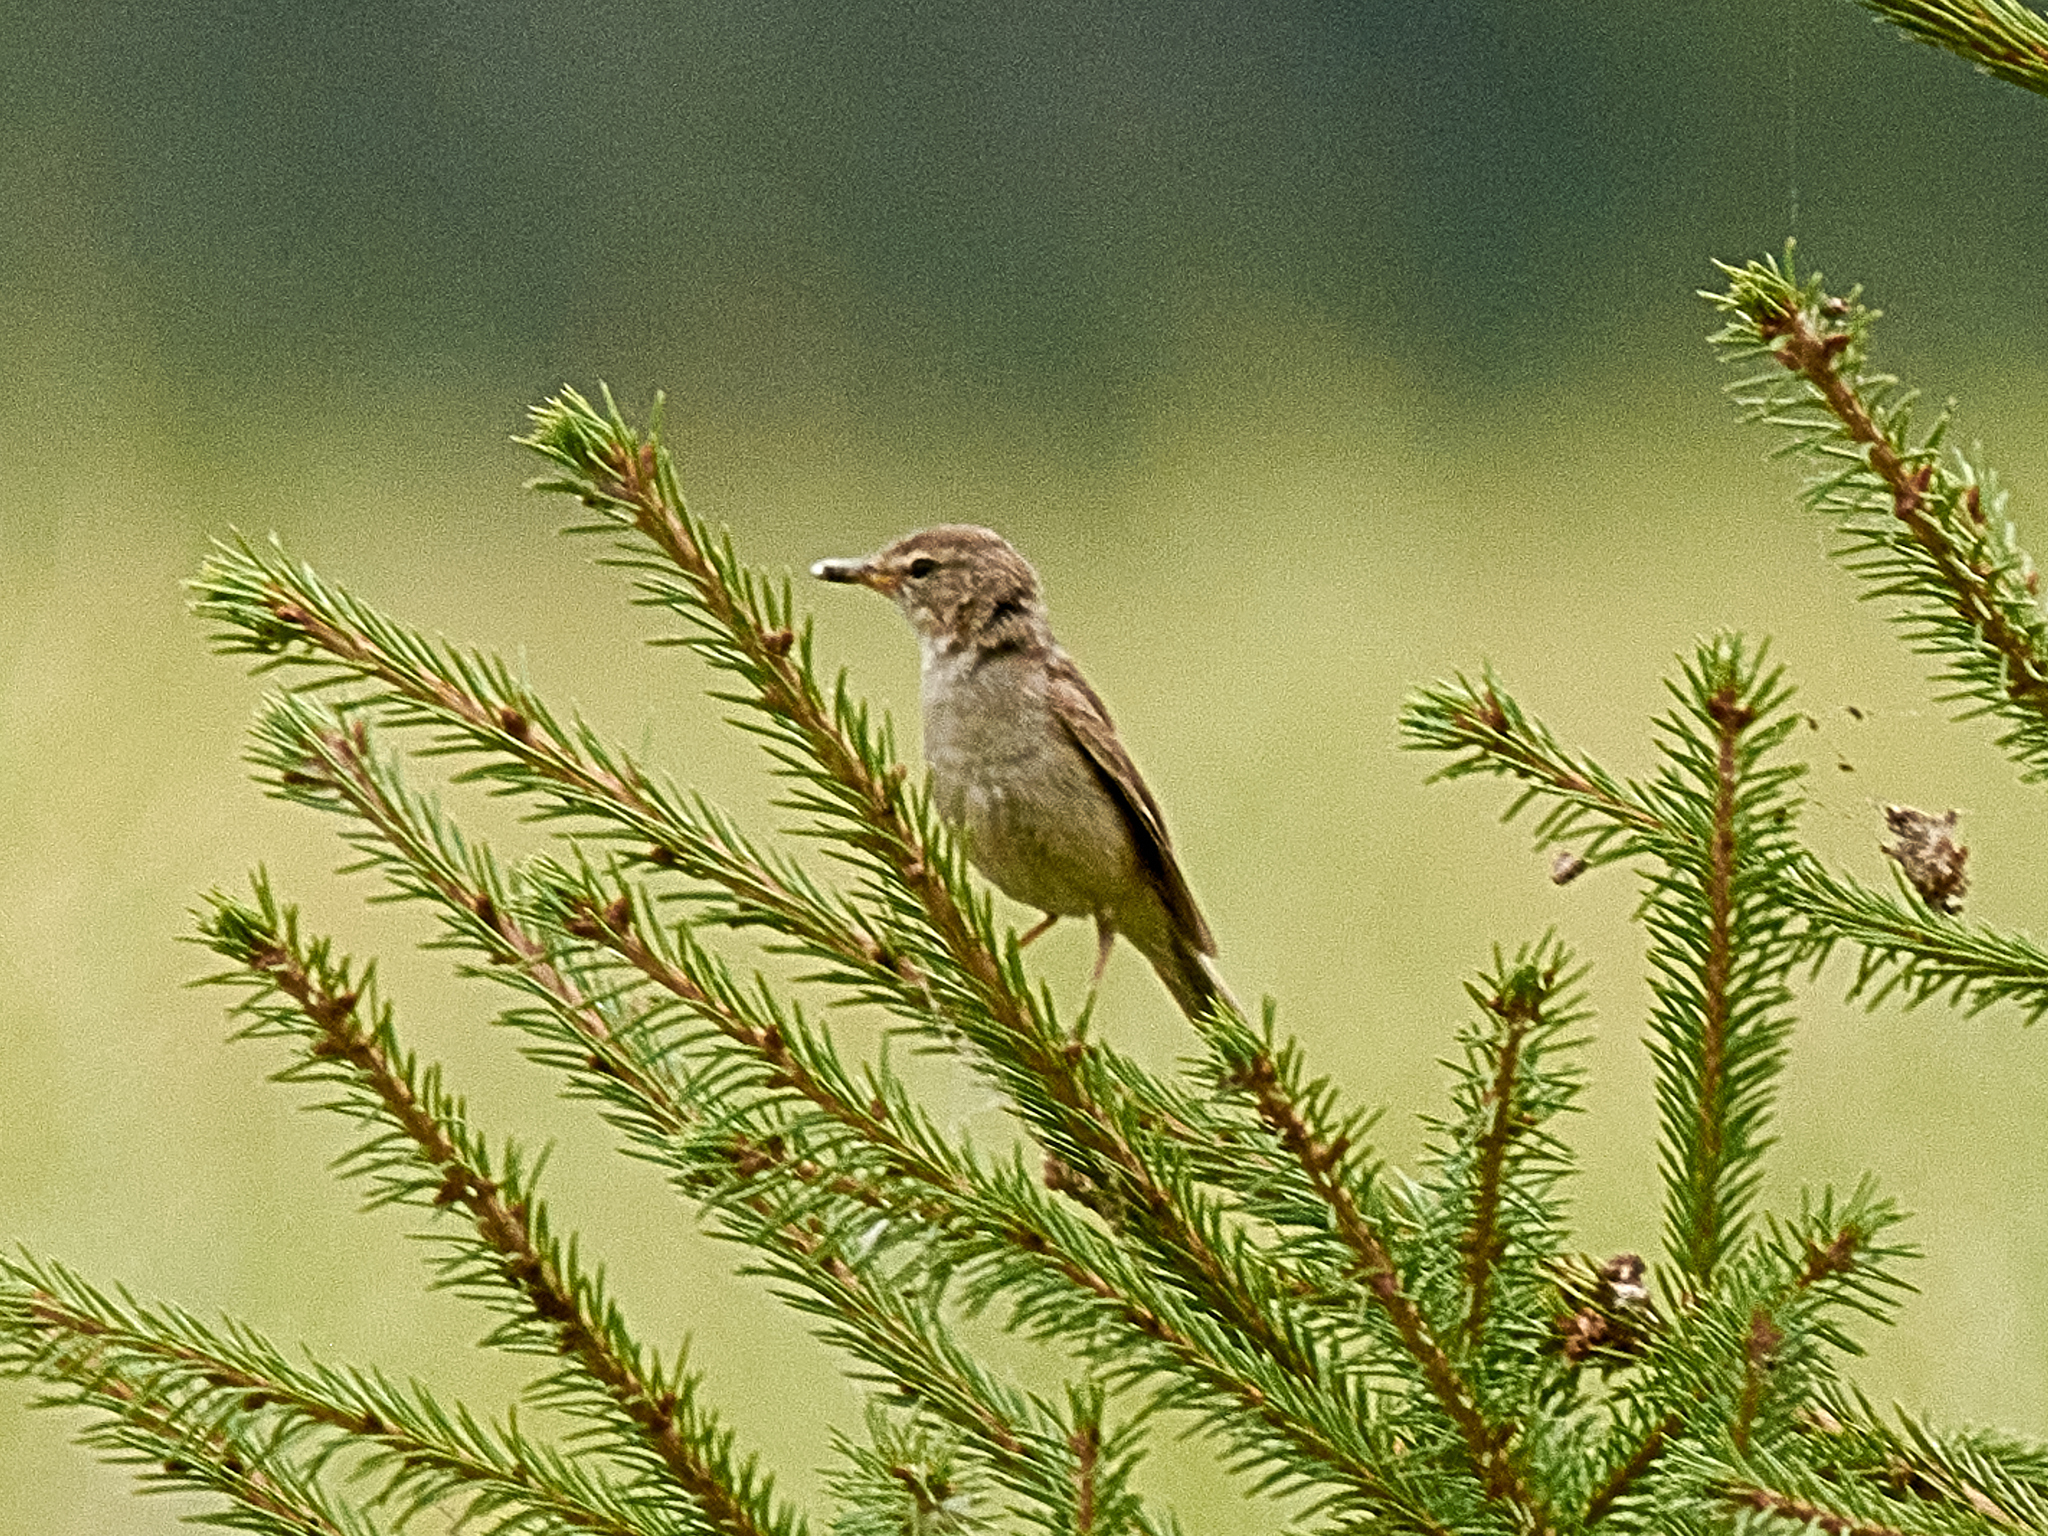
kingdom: Animalia
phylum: Chordata
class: Aves
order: Passeriformes
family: Acrocephalidae
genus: Iduna
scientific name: Iduna caligata
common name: Booted warbler
